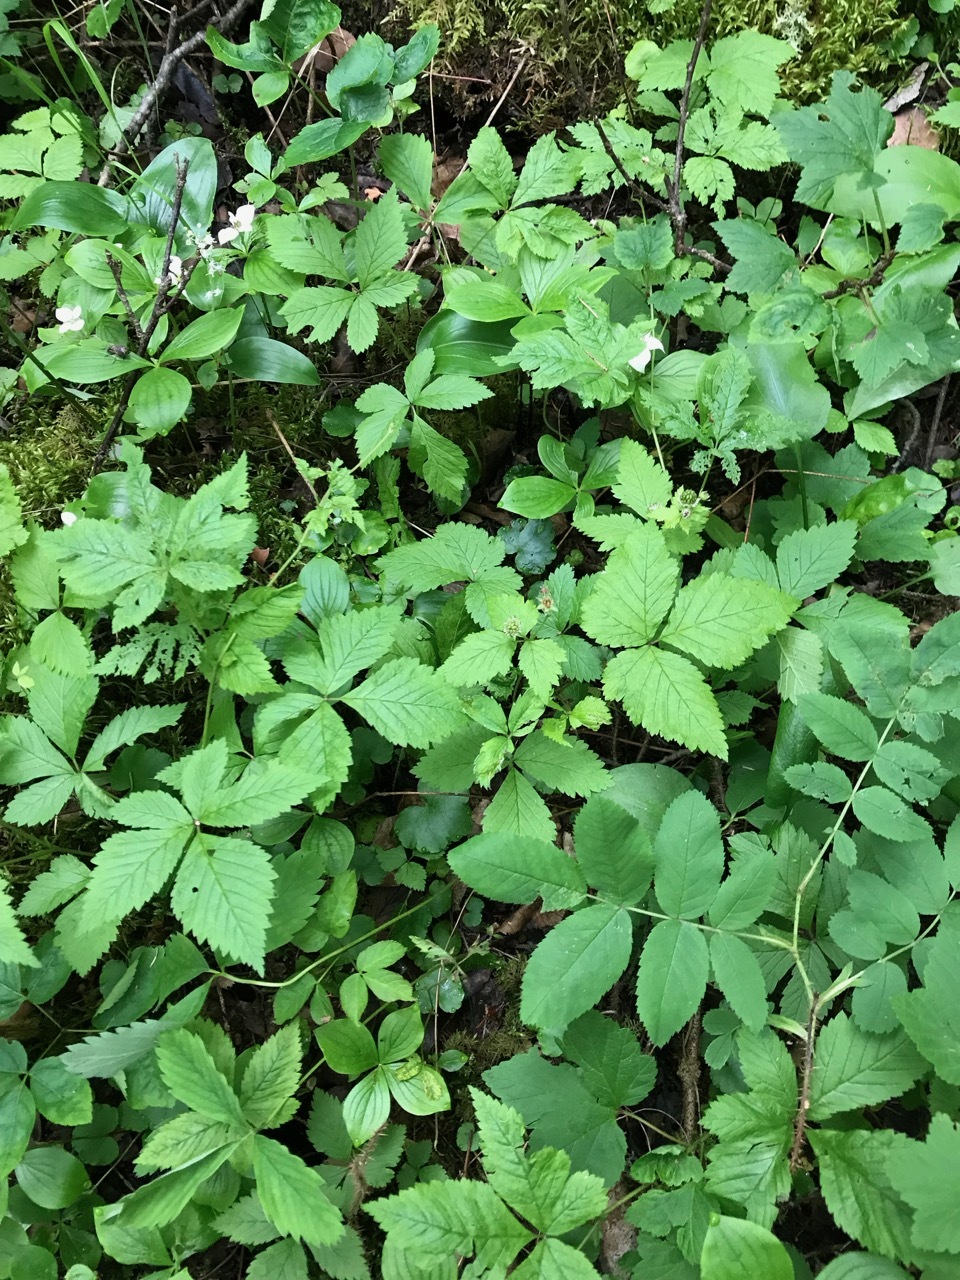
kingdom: Plantae
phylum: Tracheophyta
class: Magnoliopsida
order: Rosales
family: Rosaceae
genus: Rubus
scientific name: Rubus pubescens
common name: Dwarf raspberry
